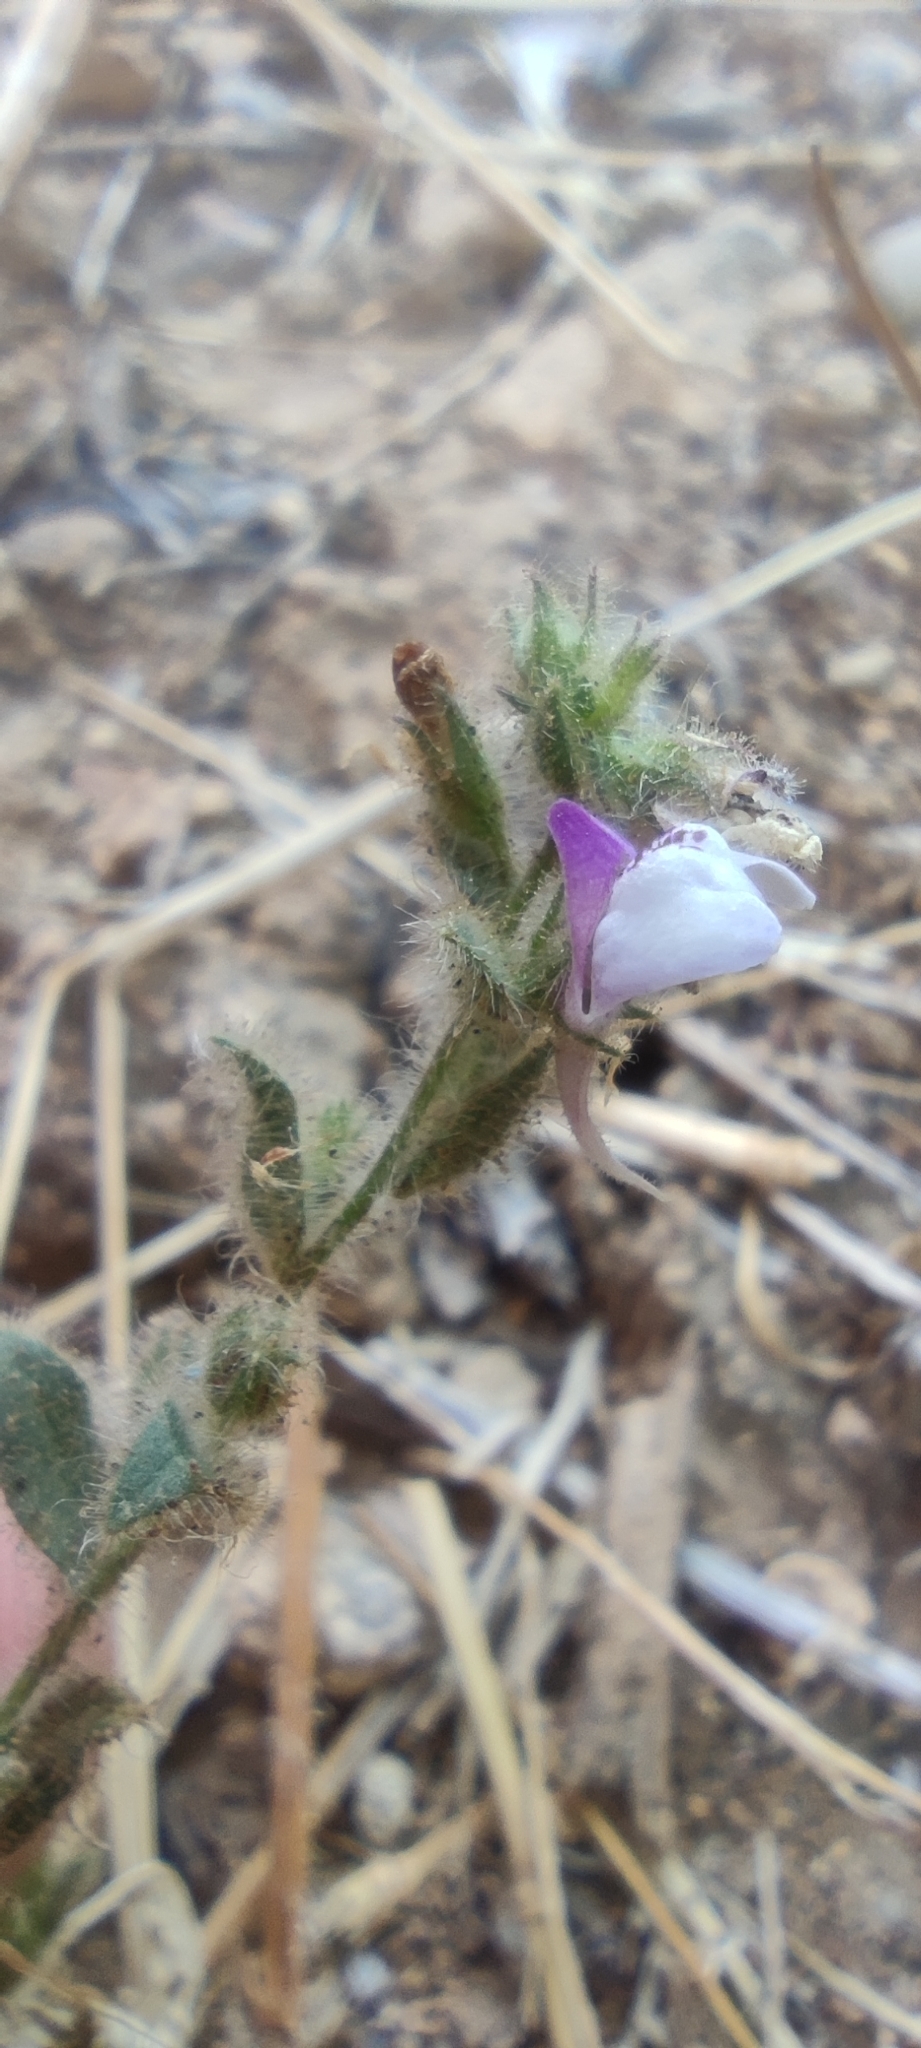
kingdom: Plantae
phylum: Tracheophyta
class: Magnoliopsida
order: Lamiales
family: Plantaginaceae
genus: Kickxia
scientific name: Kickxia lanigera
